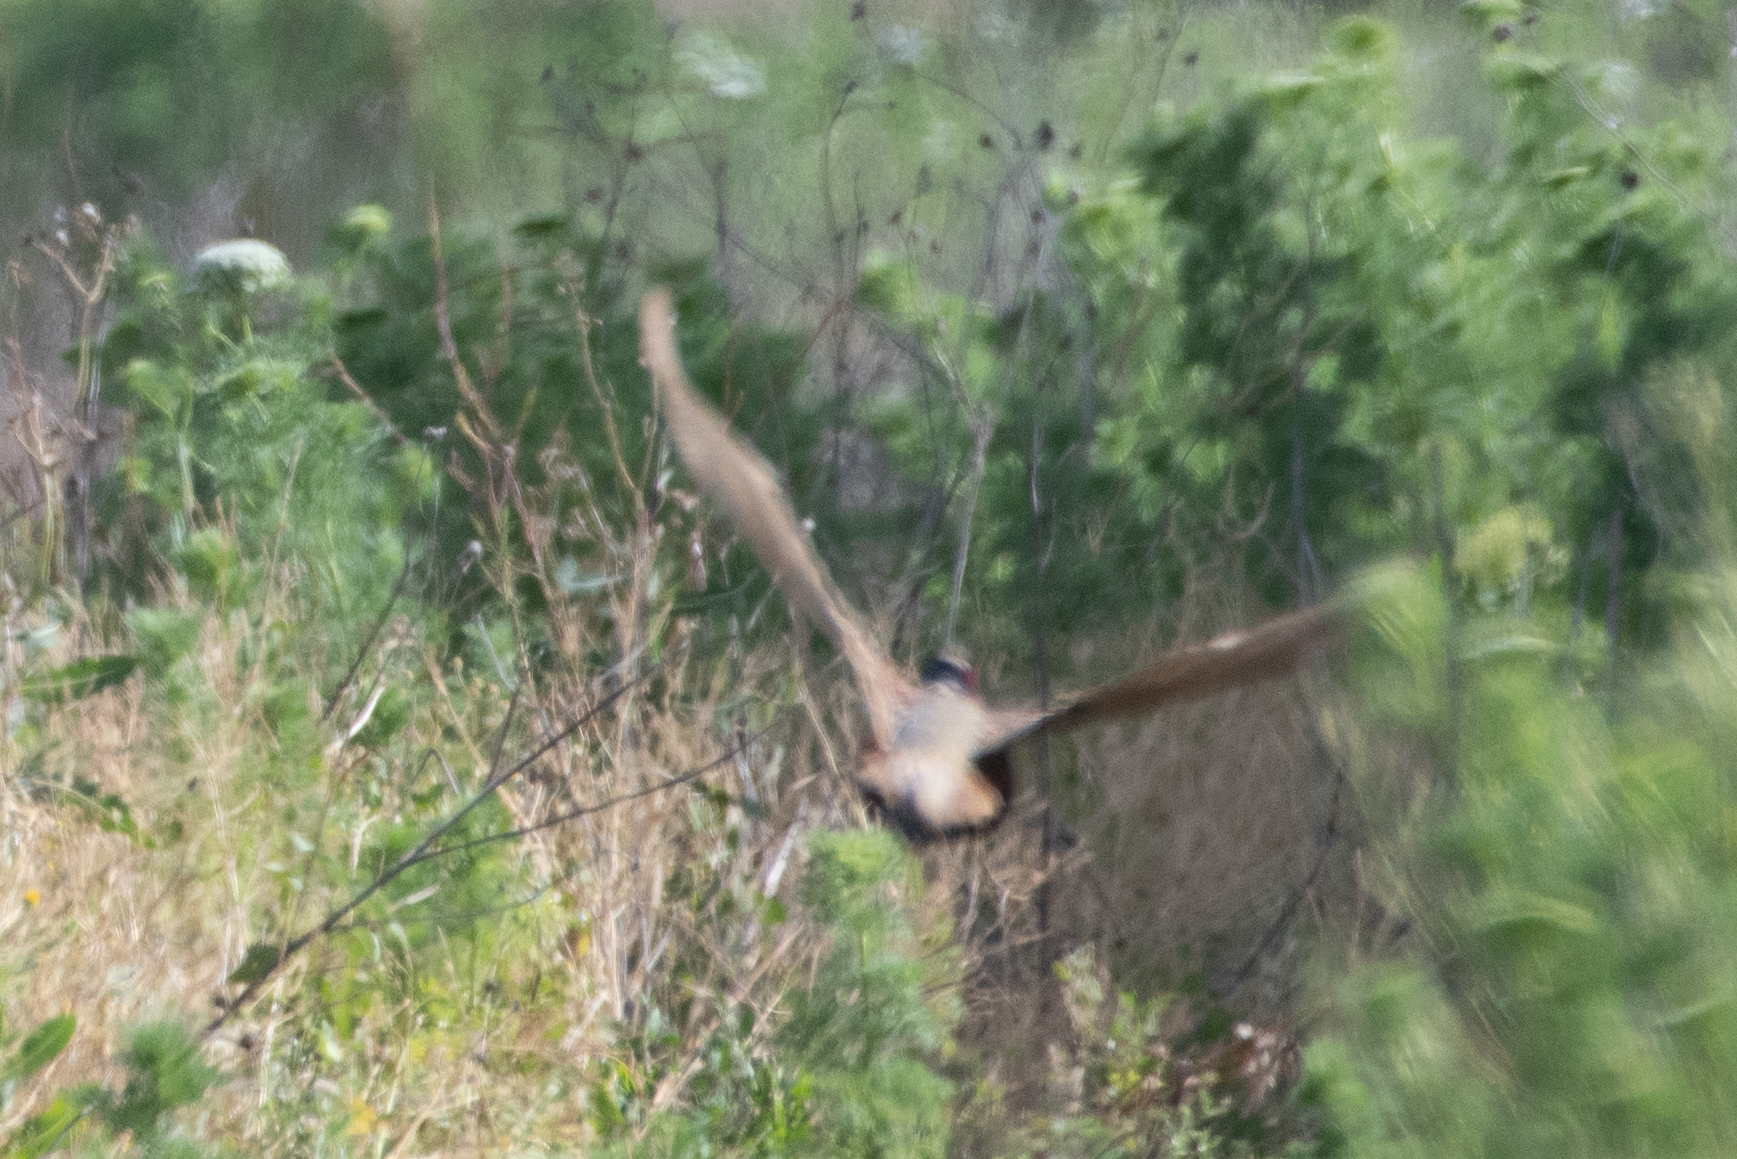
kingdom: Animalia
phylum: Chordata
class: Aves
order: Galliformes
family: Phasianidae
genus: Phasianus
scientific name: Phasianus colchicus
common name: Common pheasant
